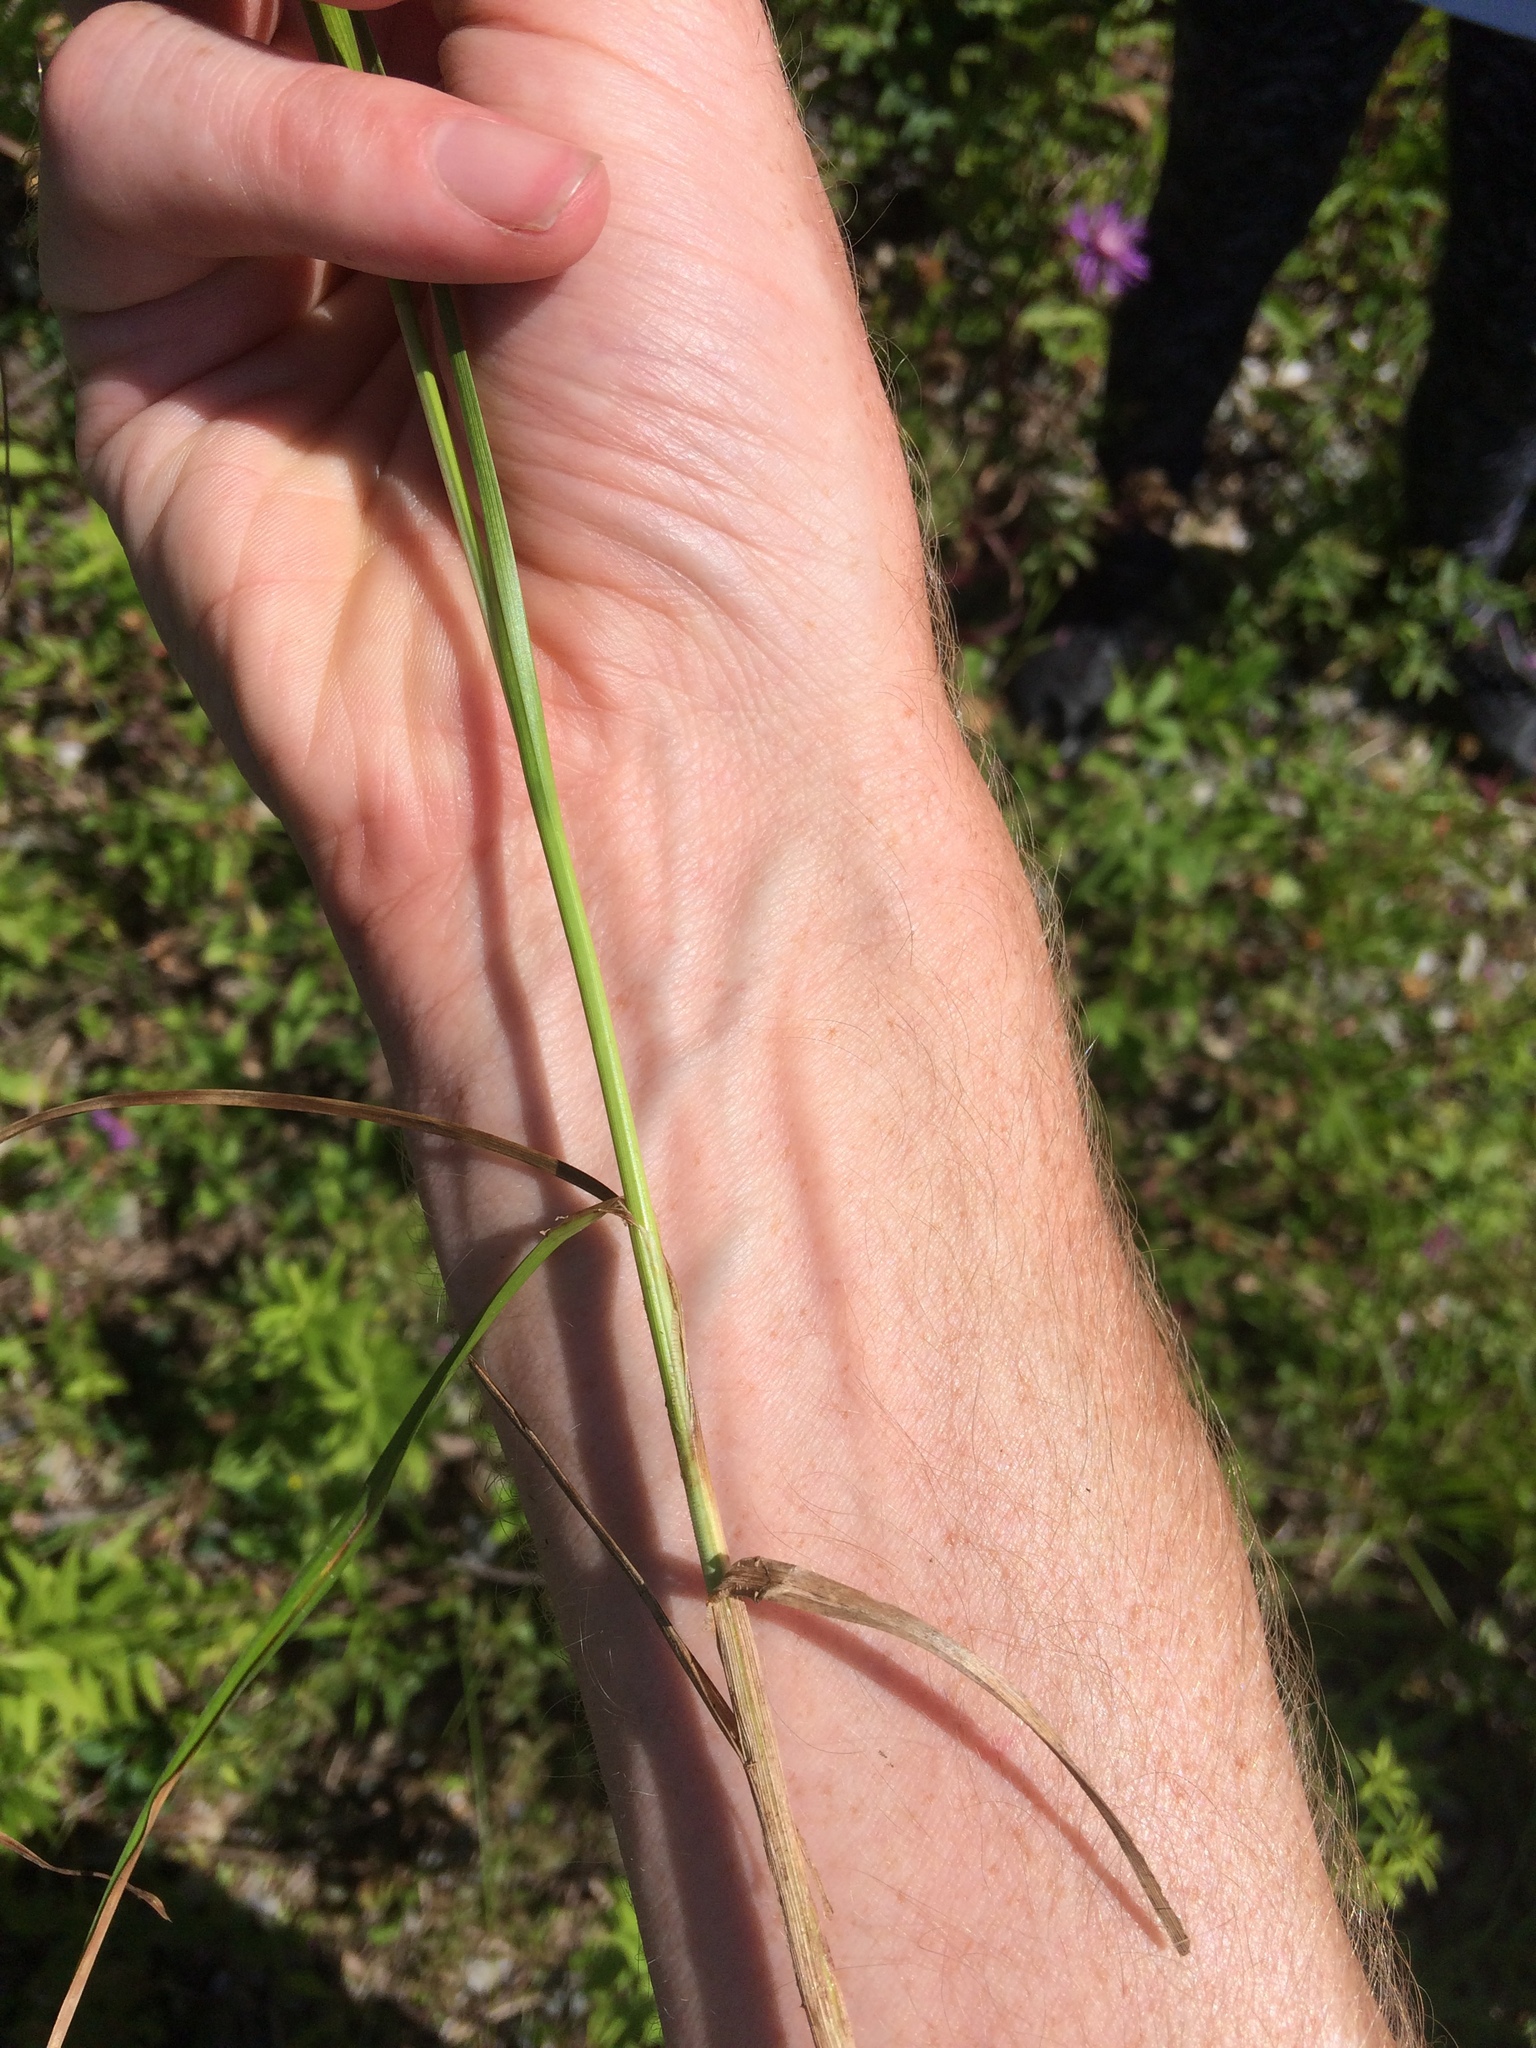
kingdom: Plantae
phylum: Tracheophyta
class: Liliopsida
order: Poales
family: Cyperaceae
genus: Carex
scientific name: Carex vulpinoidea
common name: American fox-sedge
